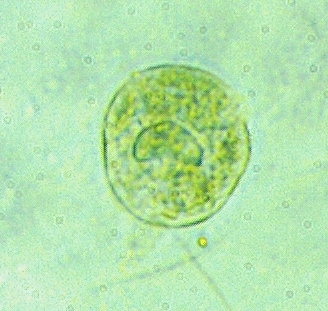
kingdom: Chromista
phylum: Ciliophora
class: Oligohymenophorea
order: Hymenostomatida
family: Urocentridae
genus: Urocentrum
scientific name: Urocentrum turbo
